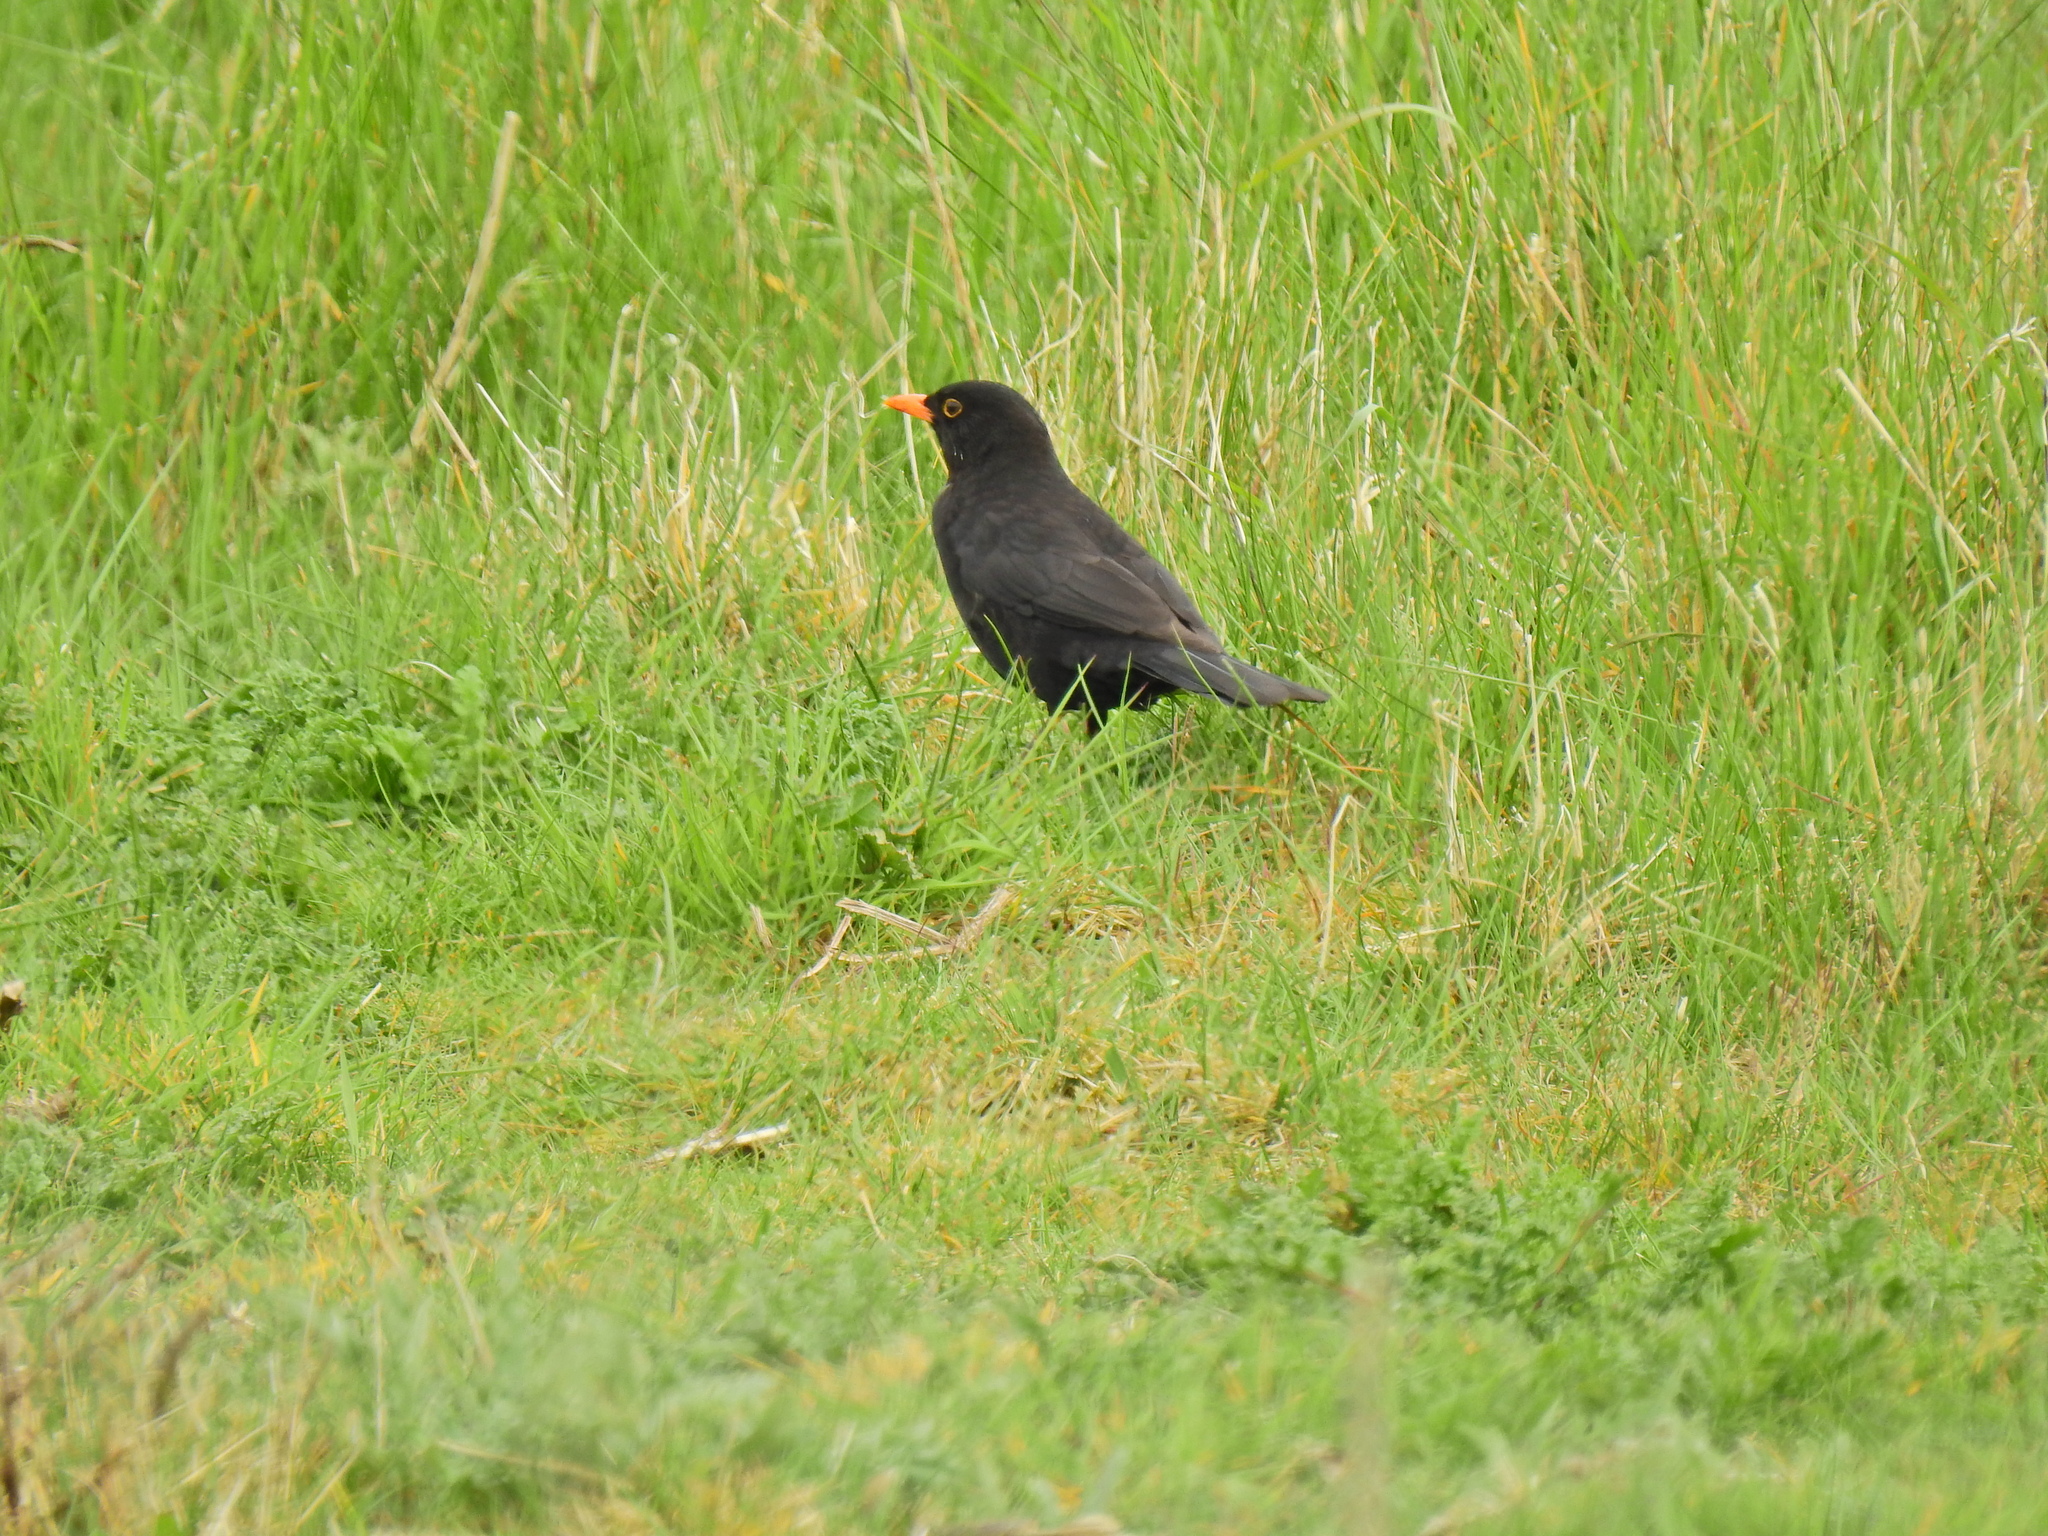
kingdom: Animalia
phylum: Chordata
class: Aves
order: Passeriformes
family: Turdidae
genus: Turdus
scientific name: Turdus merula
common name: Common blackbird
